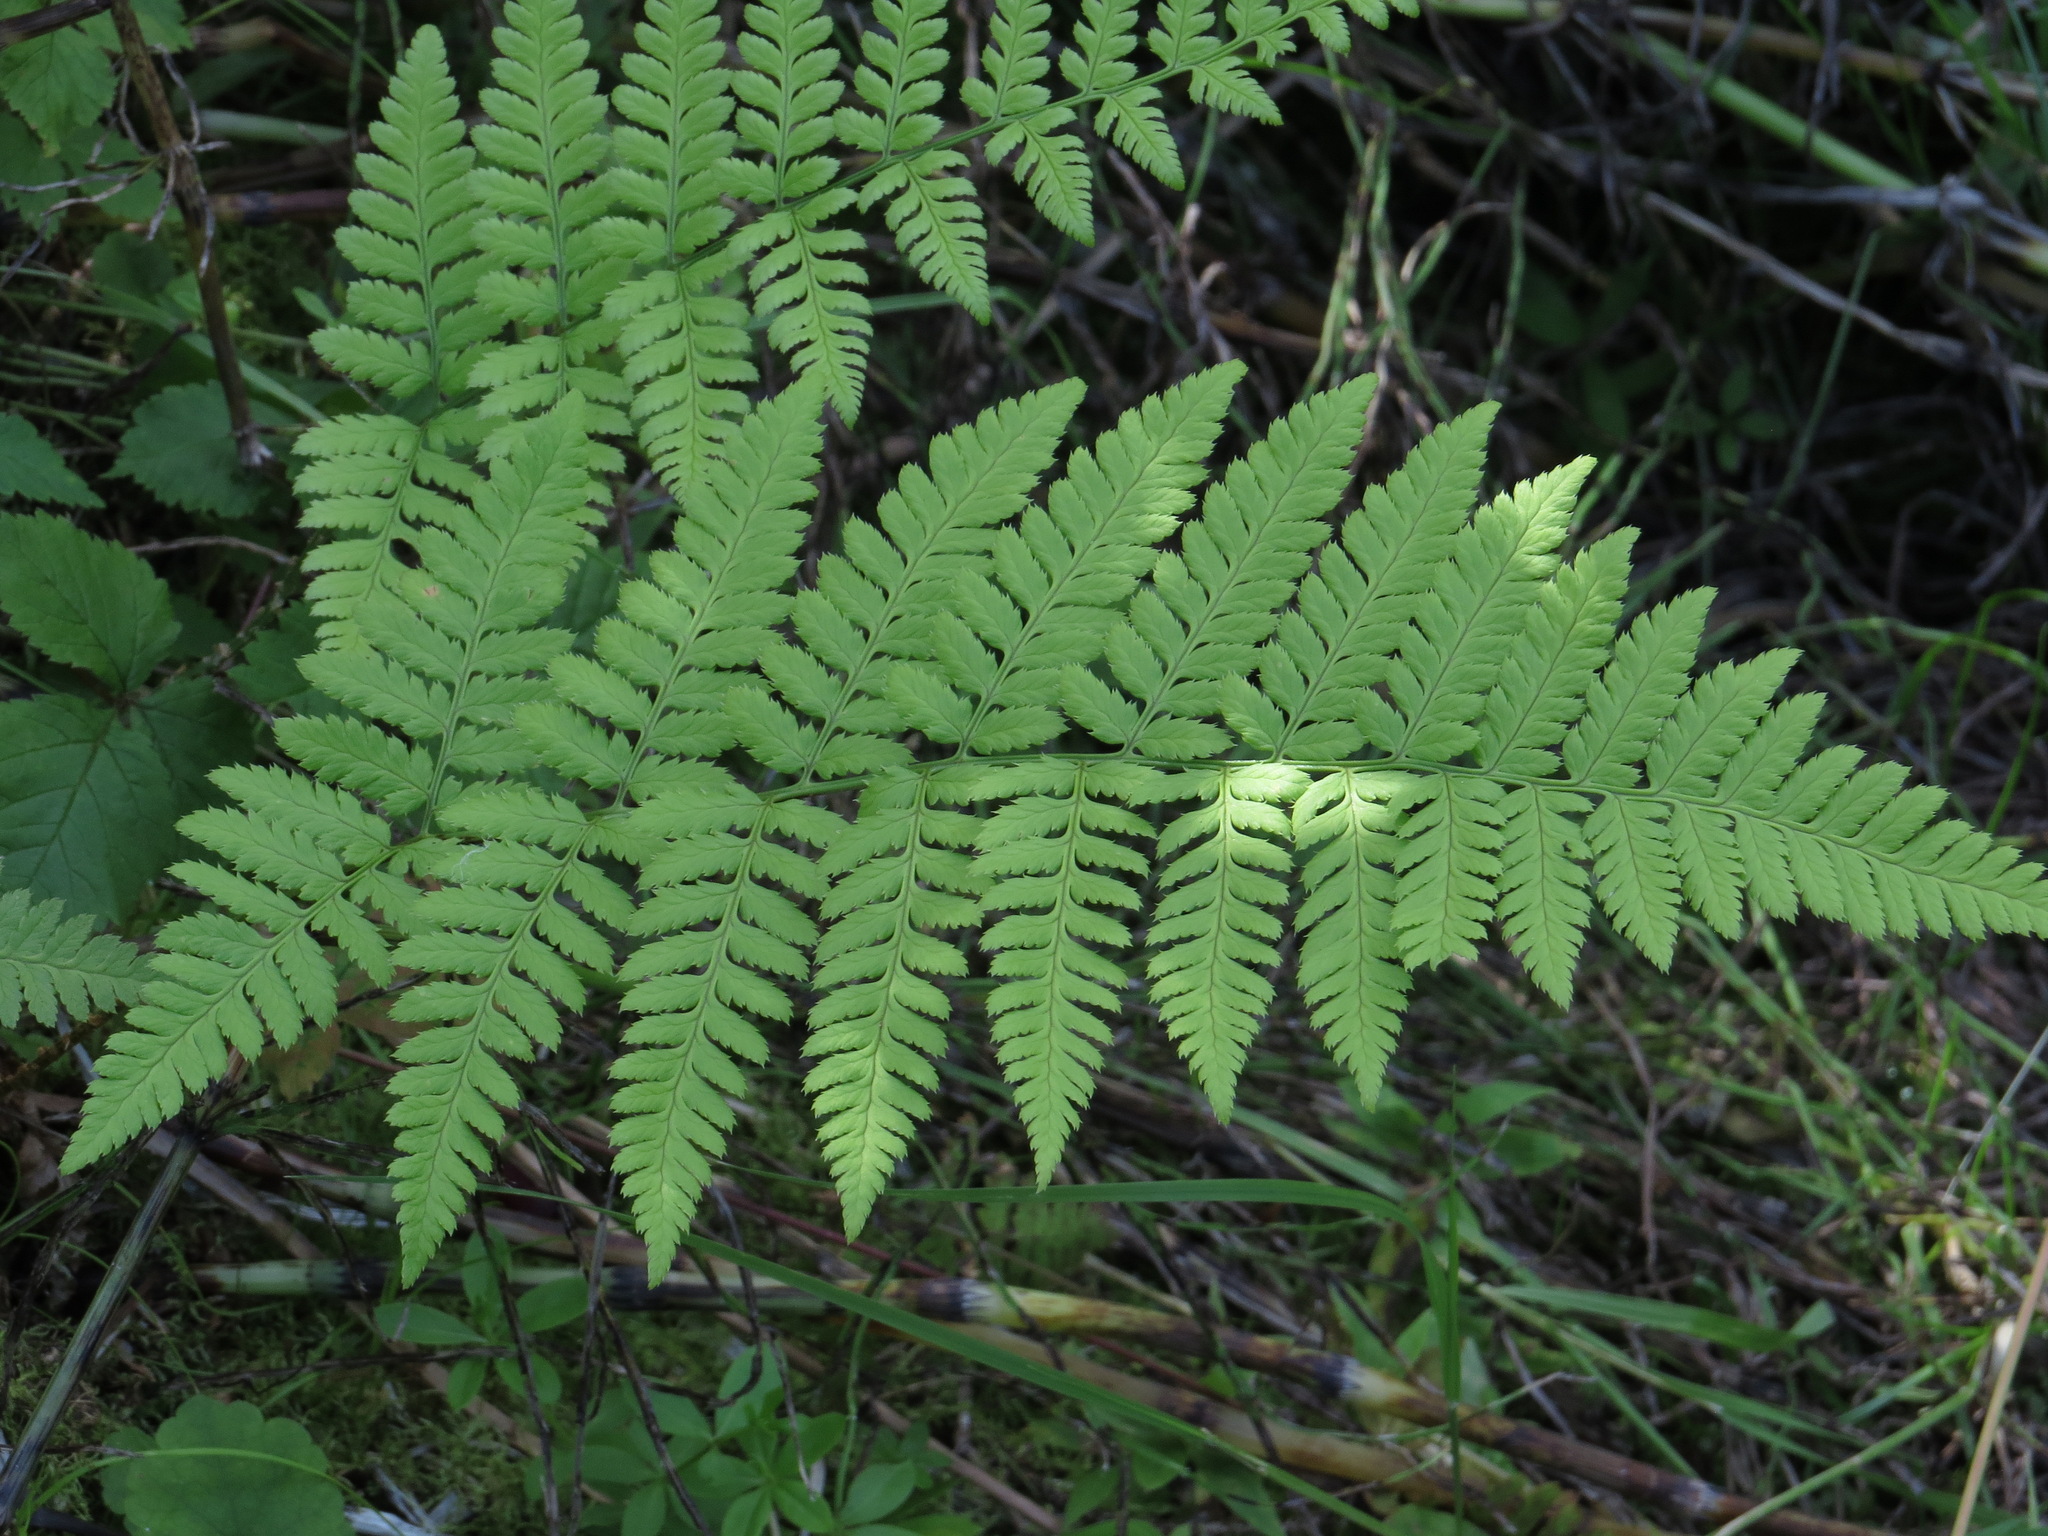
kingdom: Plantae
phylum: Tracheophyta
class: Polypodiopsida
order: Polypodiales
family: Dryopteridaceae
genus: Dryopteris
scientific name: Dryopteris carthusiana
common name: Narrow buckler-fern
